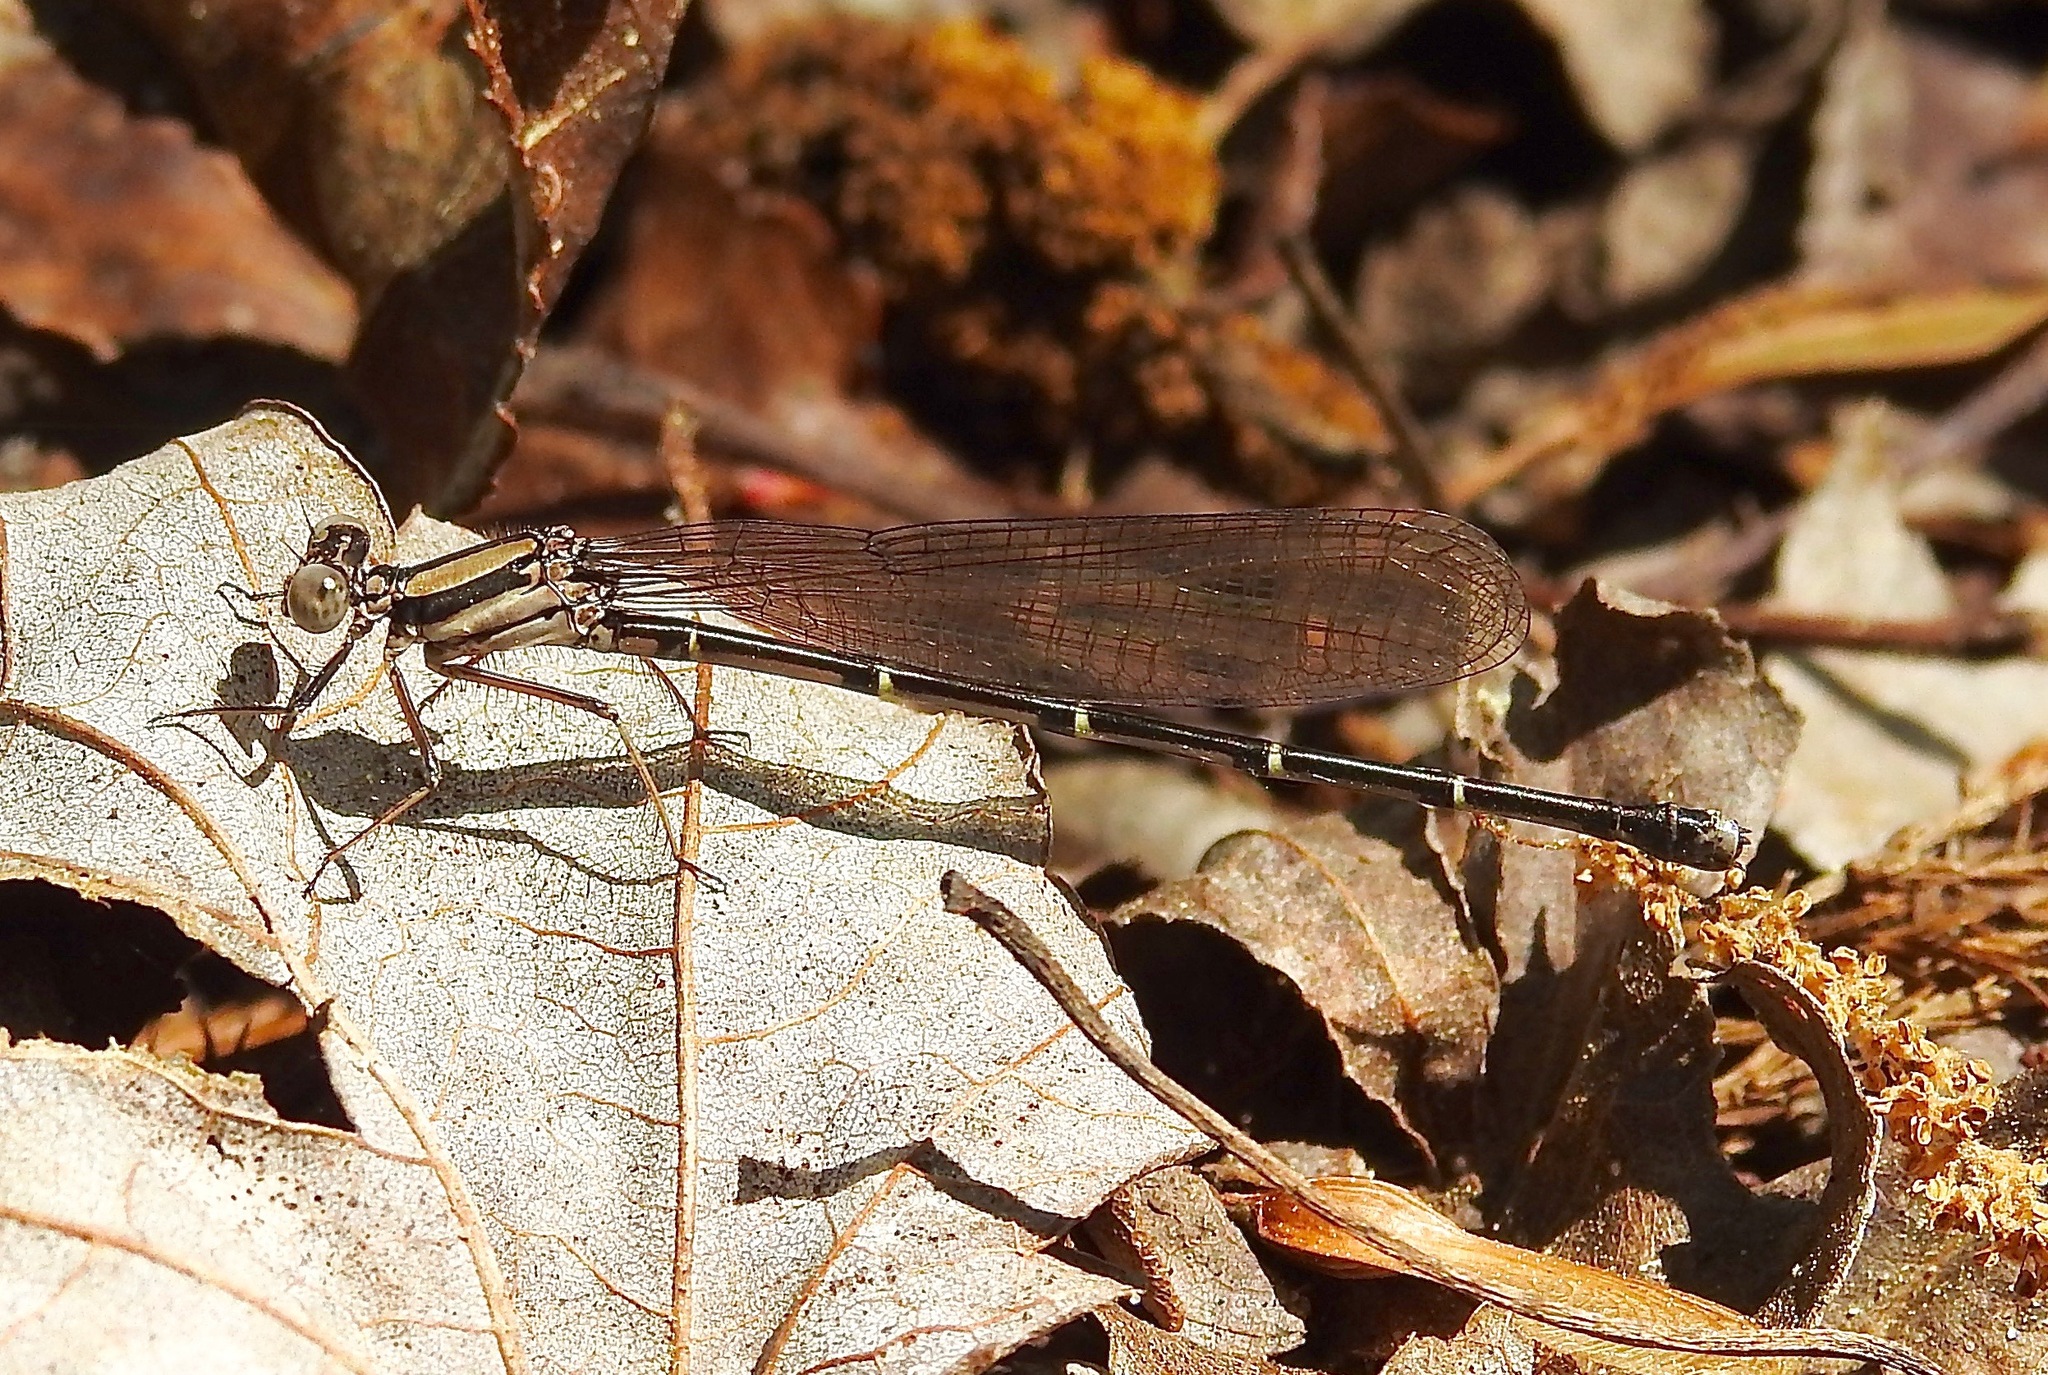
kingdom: Animalia
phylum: Arthropoda
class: Insecta
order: Odonata
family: Coenagrionidae
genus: Argia
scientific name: Argia tibialis
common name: Blue-tipped dancer
